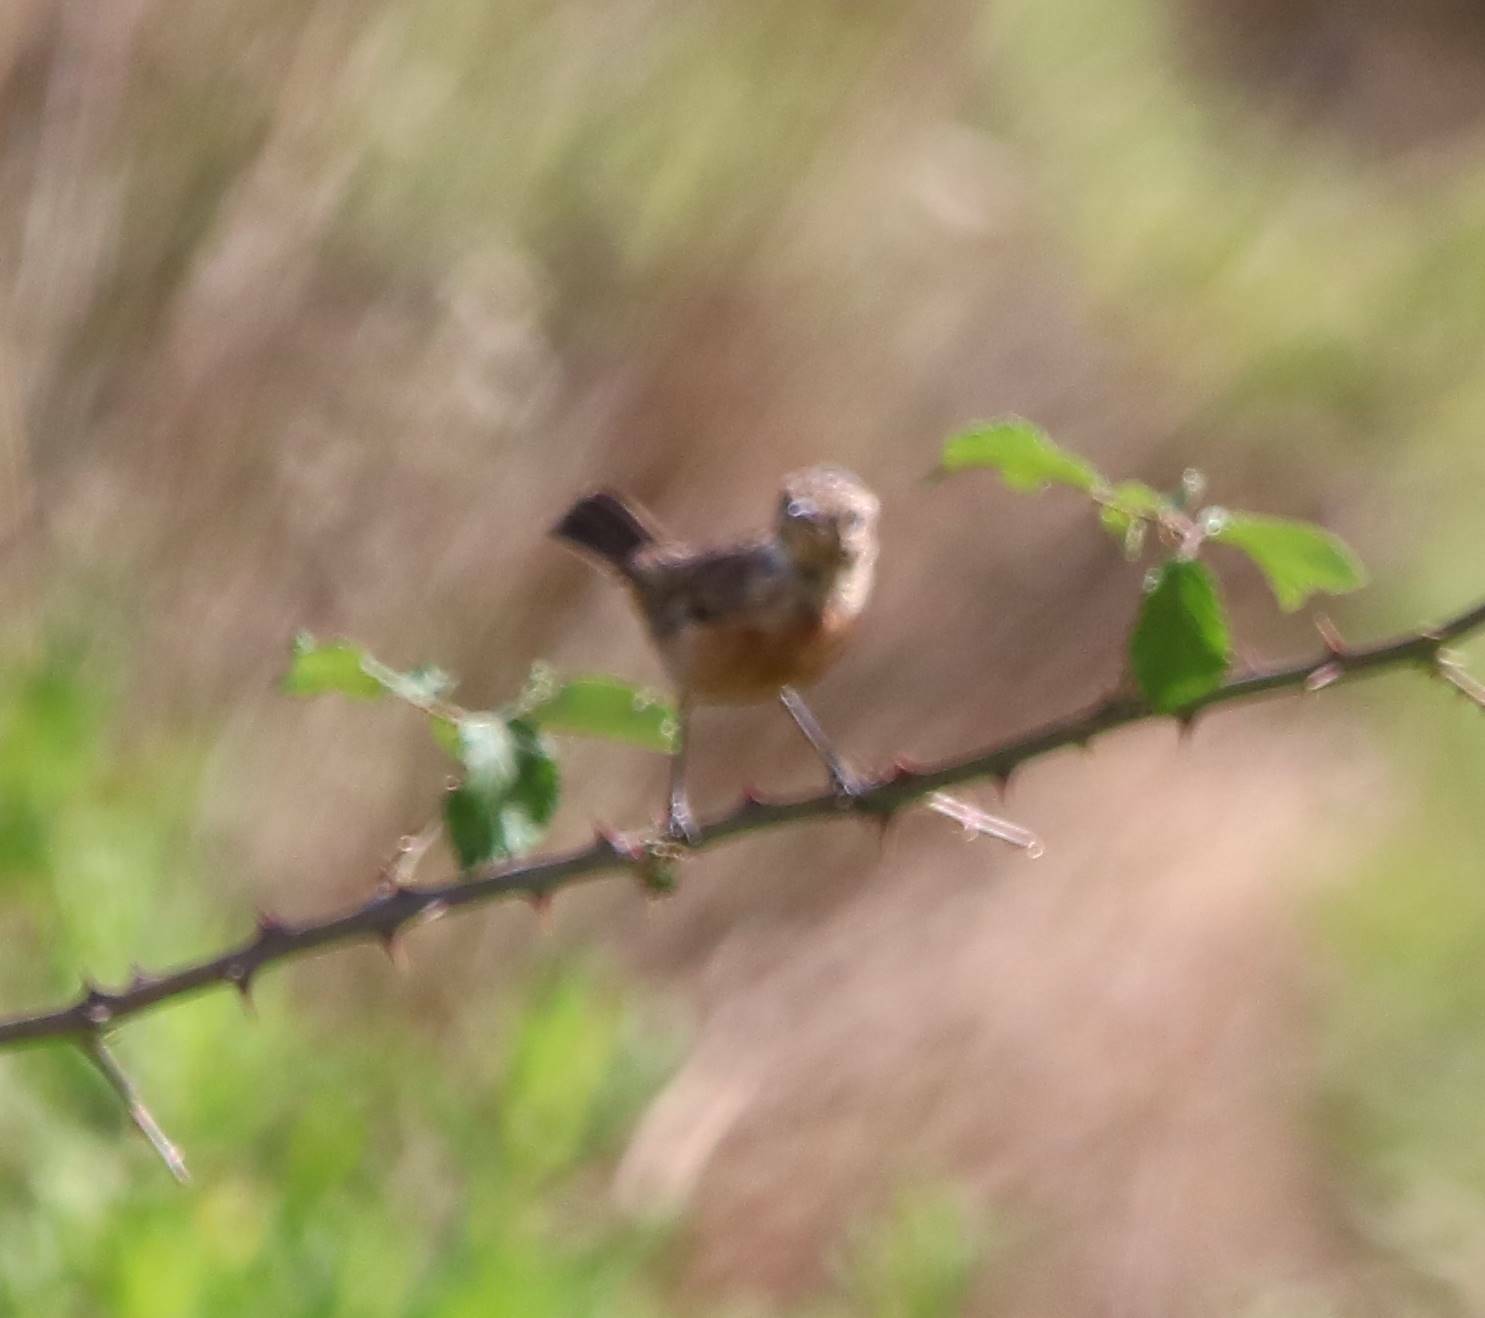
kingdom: Animalia
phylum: Chordata
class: Aves
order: Passeriformes
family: Muscicapidae
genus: Saxicola
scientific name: Saxicola rubicola
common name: European stonechat
